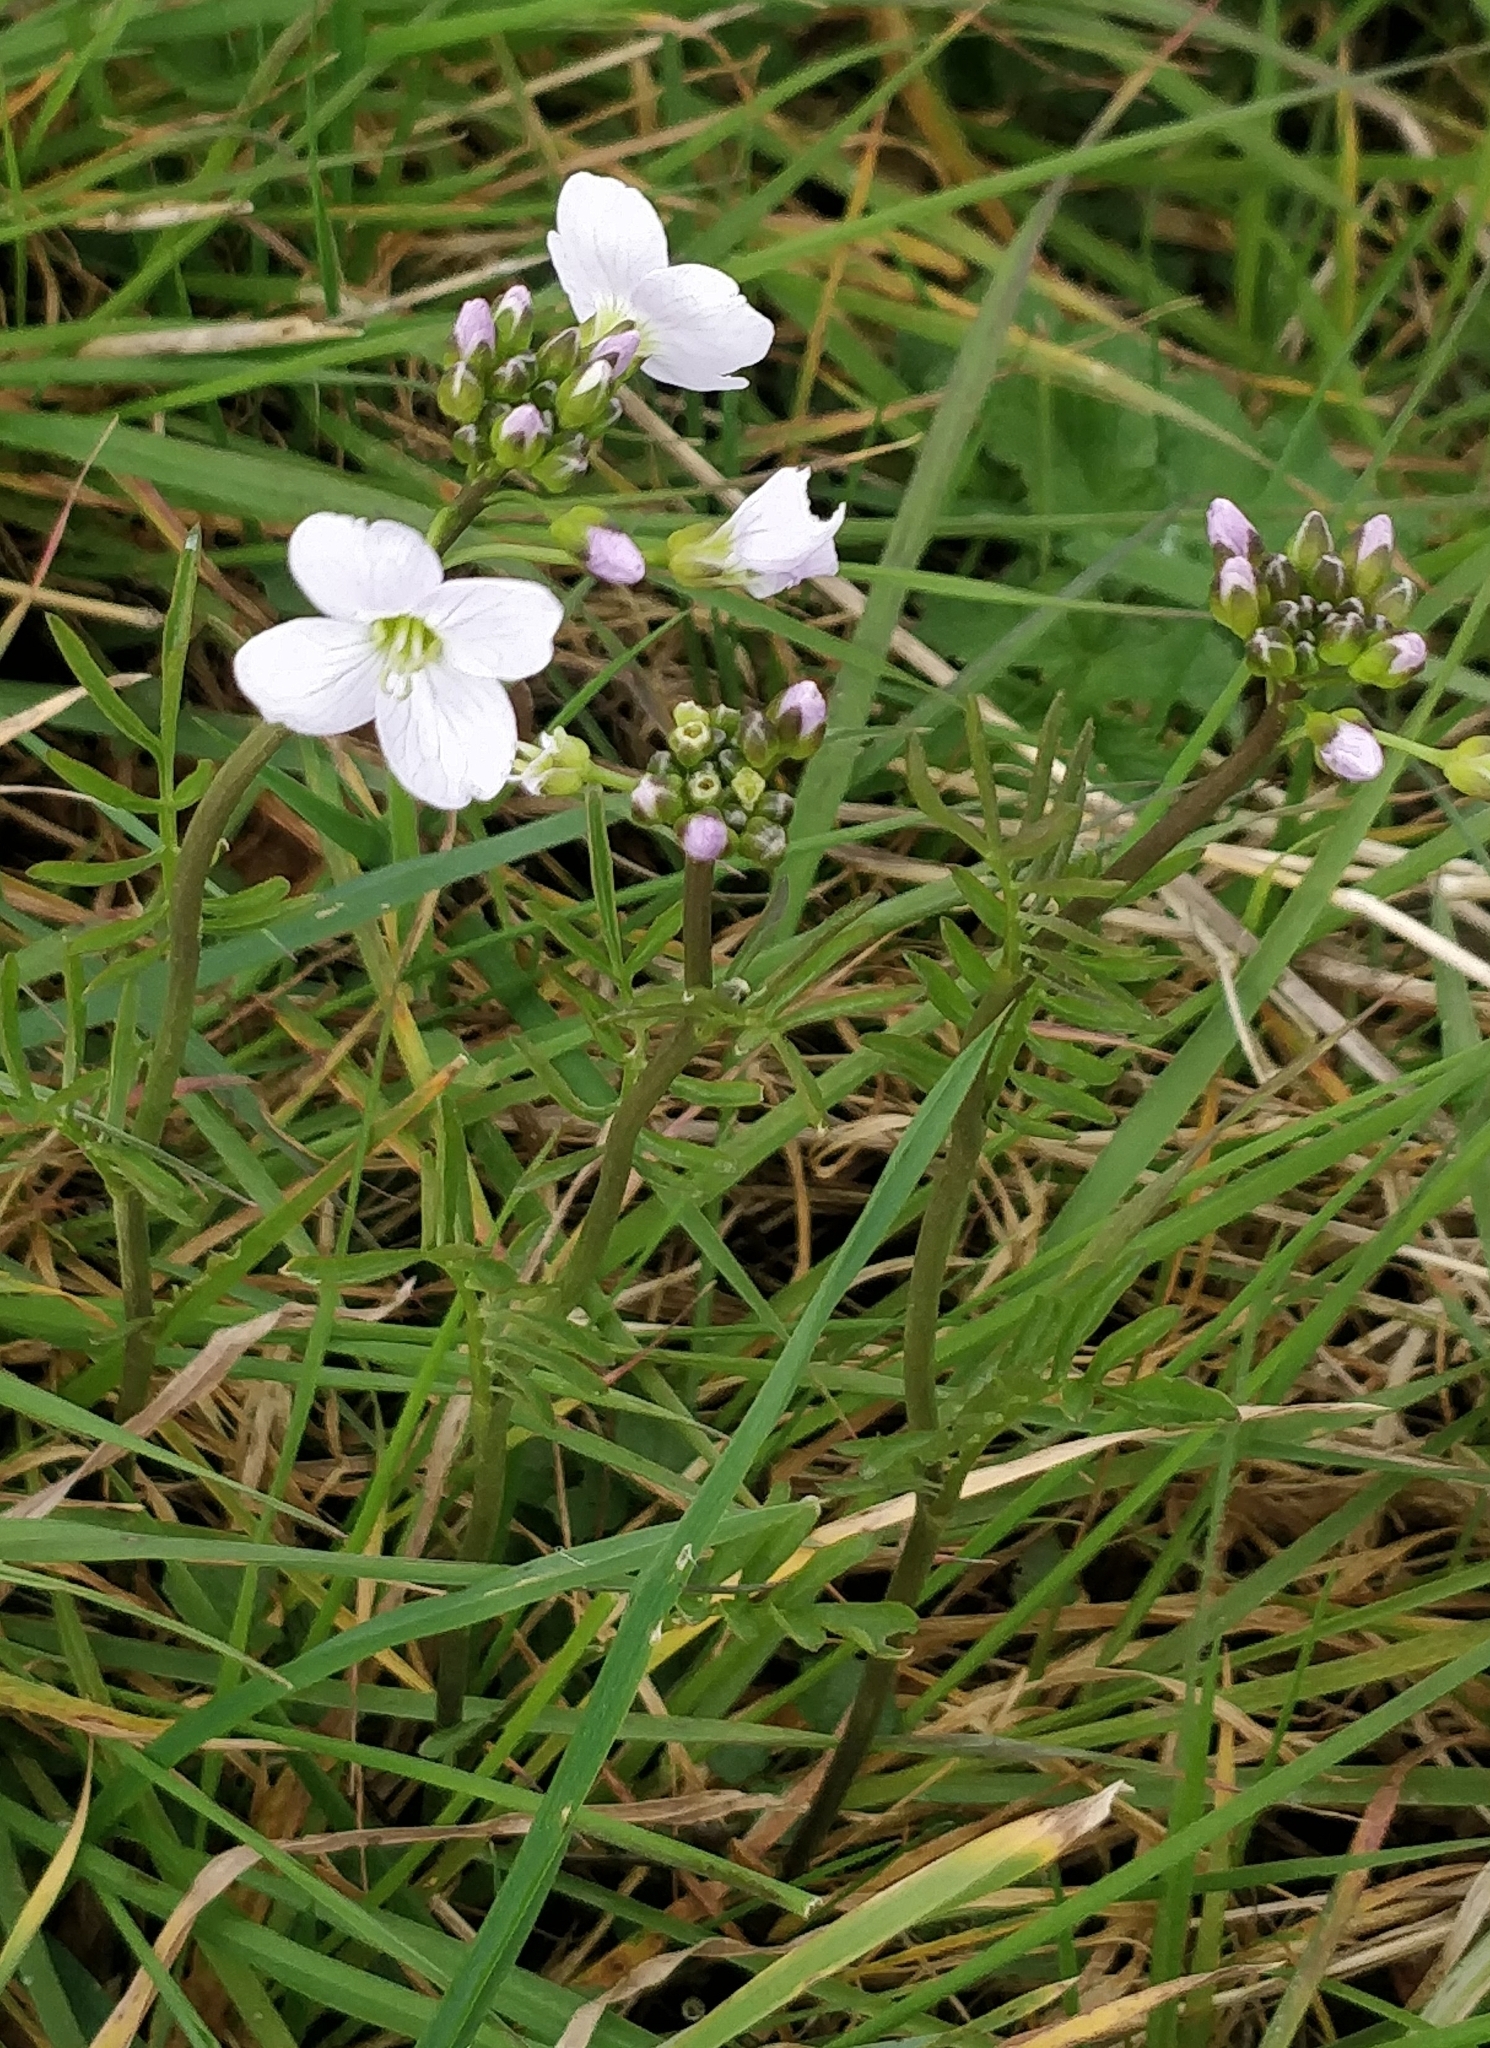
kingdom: Plantae
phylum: Tracheophyta
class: Magnoliopsida
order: Brassicales
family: Brassicaceae
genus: Cardamine
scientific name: Cardamine pratensis
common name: Cuckoo flower
